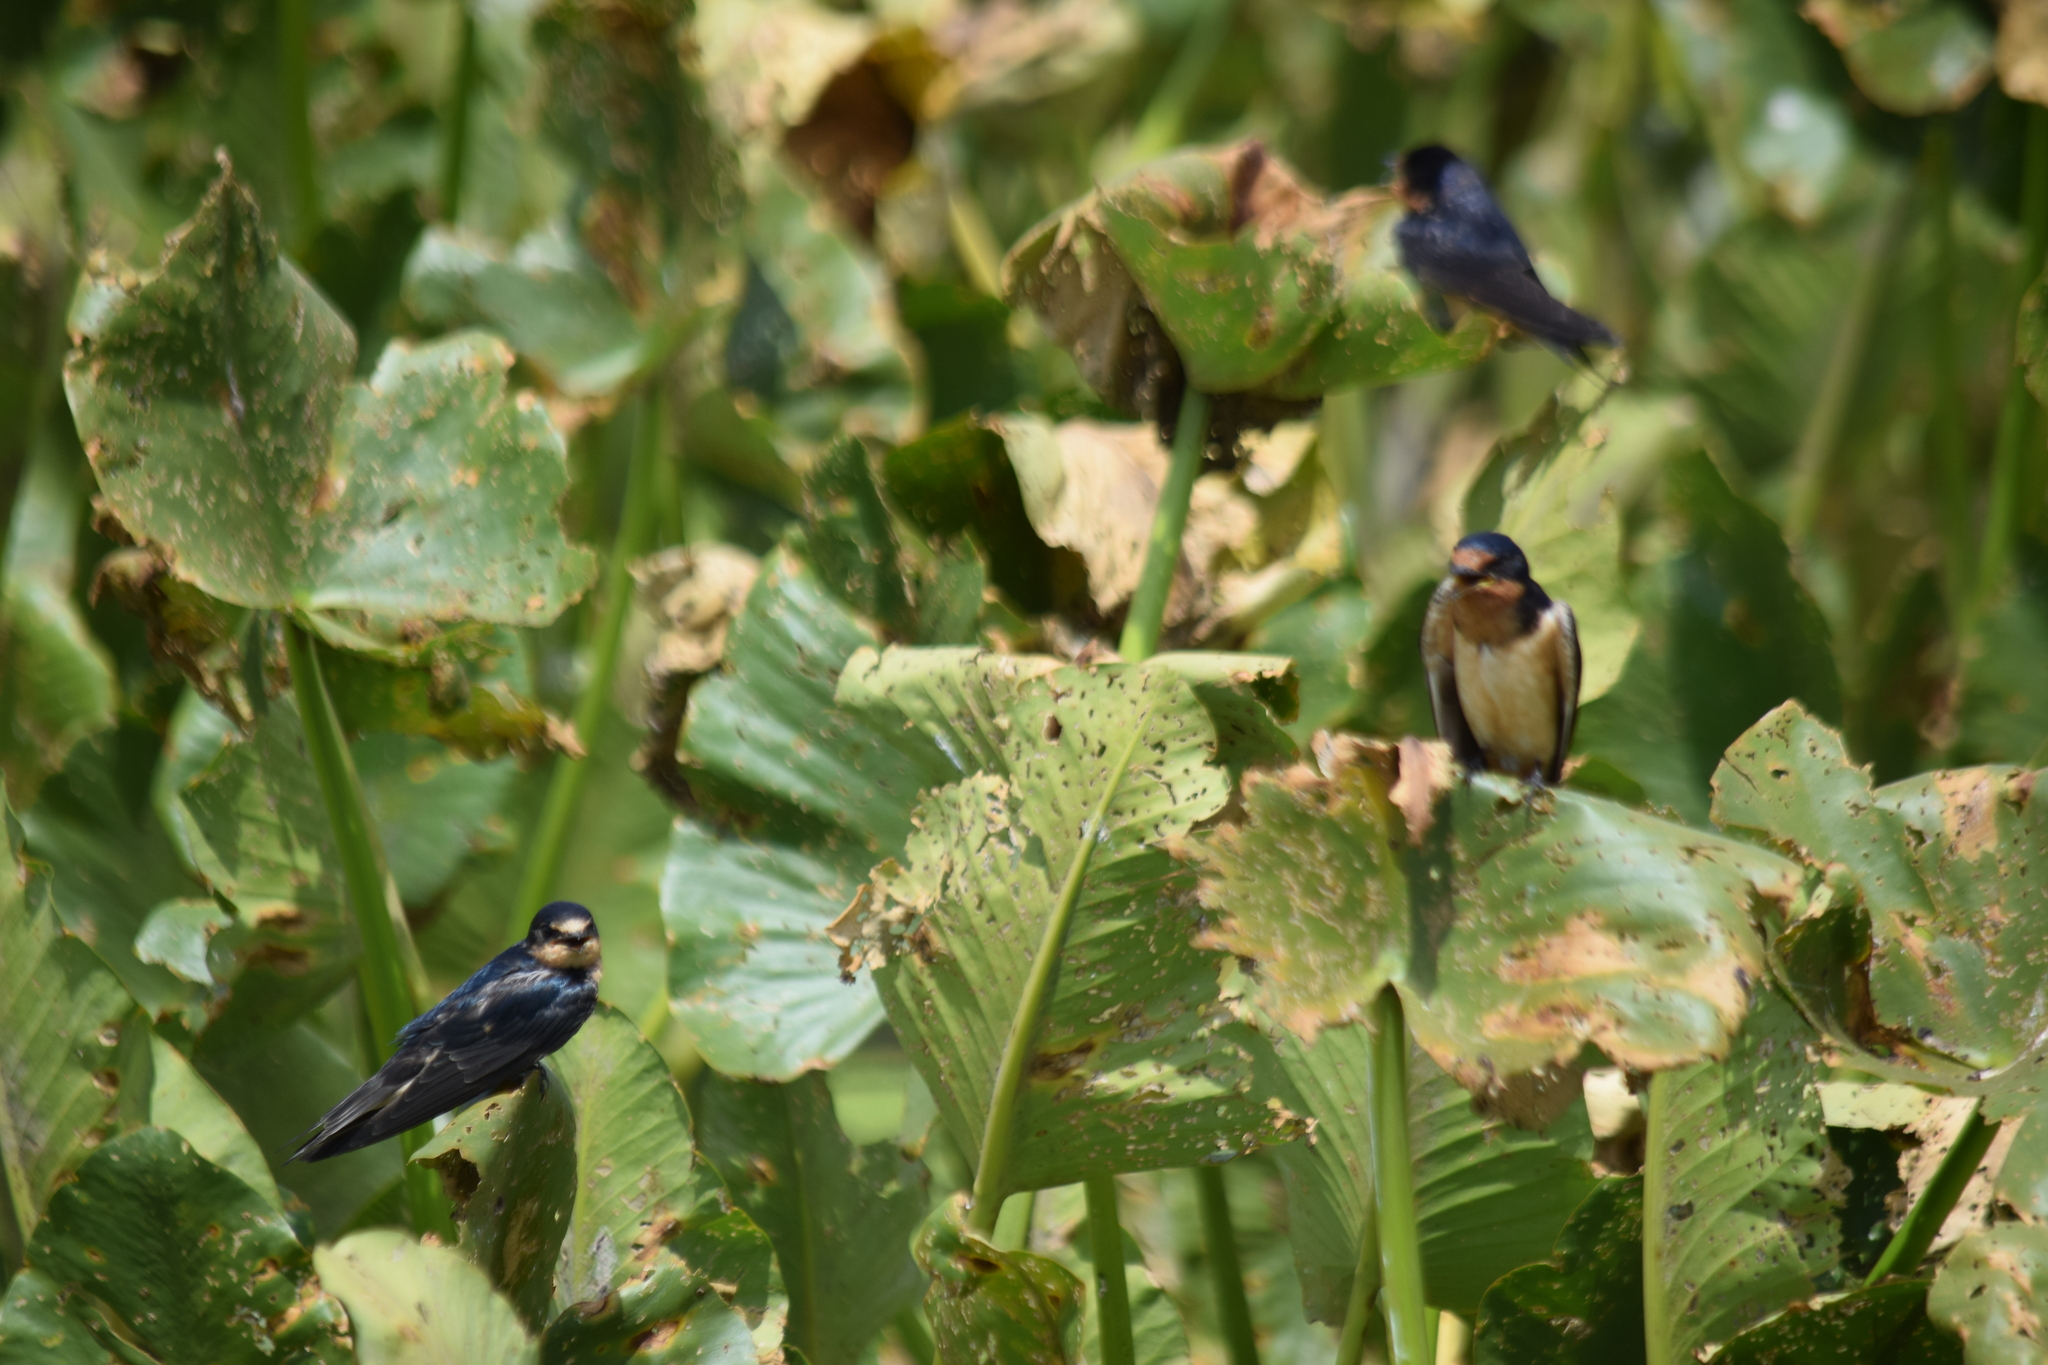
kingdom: Animalia
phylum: Chordata
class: Aves
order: Passeriformes
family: Hirundinidae
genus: Hirundo
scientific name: Hirundo rustica
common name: Barn swallow
